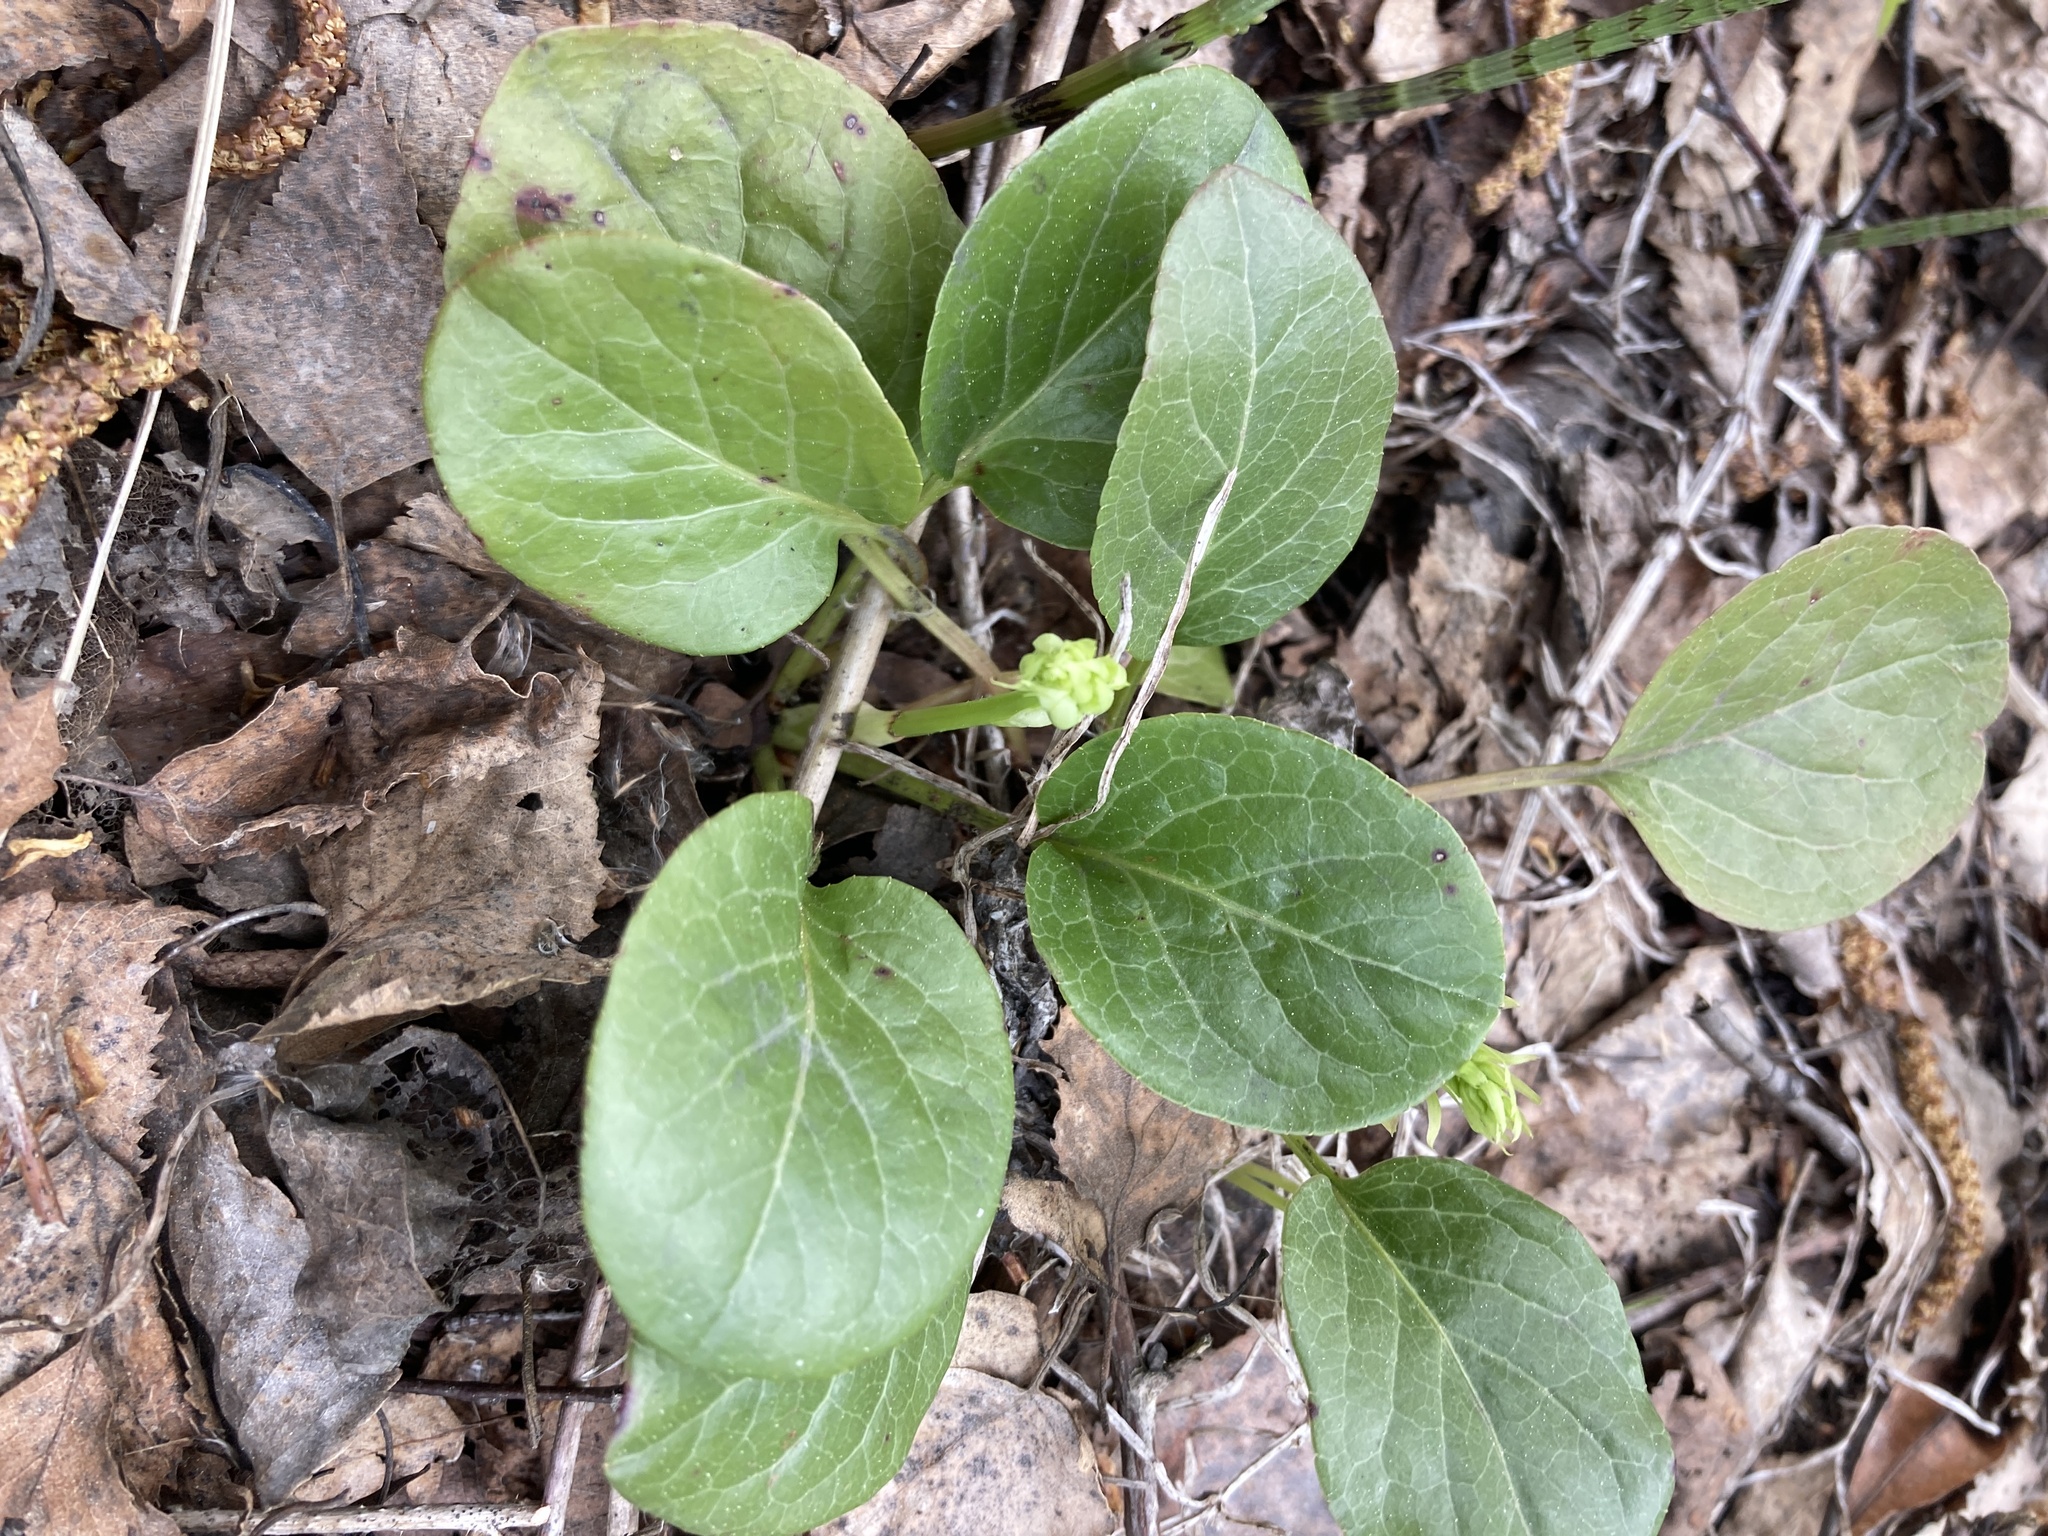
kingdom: Plantae
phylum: Tracheophyta
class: Magnoliopsida
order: Ericales
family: Ericaceae
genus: Pyrola
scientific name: Pyrola rotundifolia
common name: Round-leaved wintergreen
